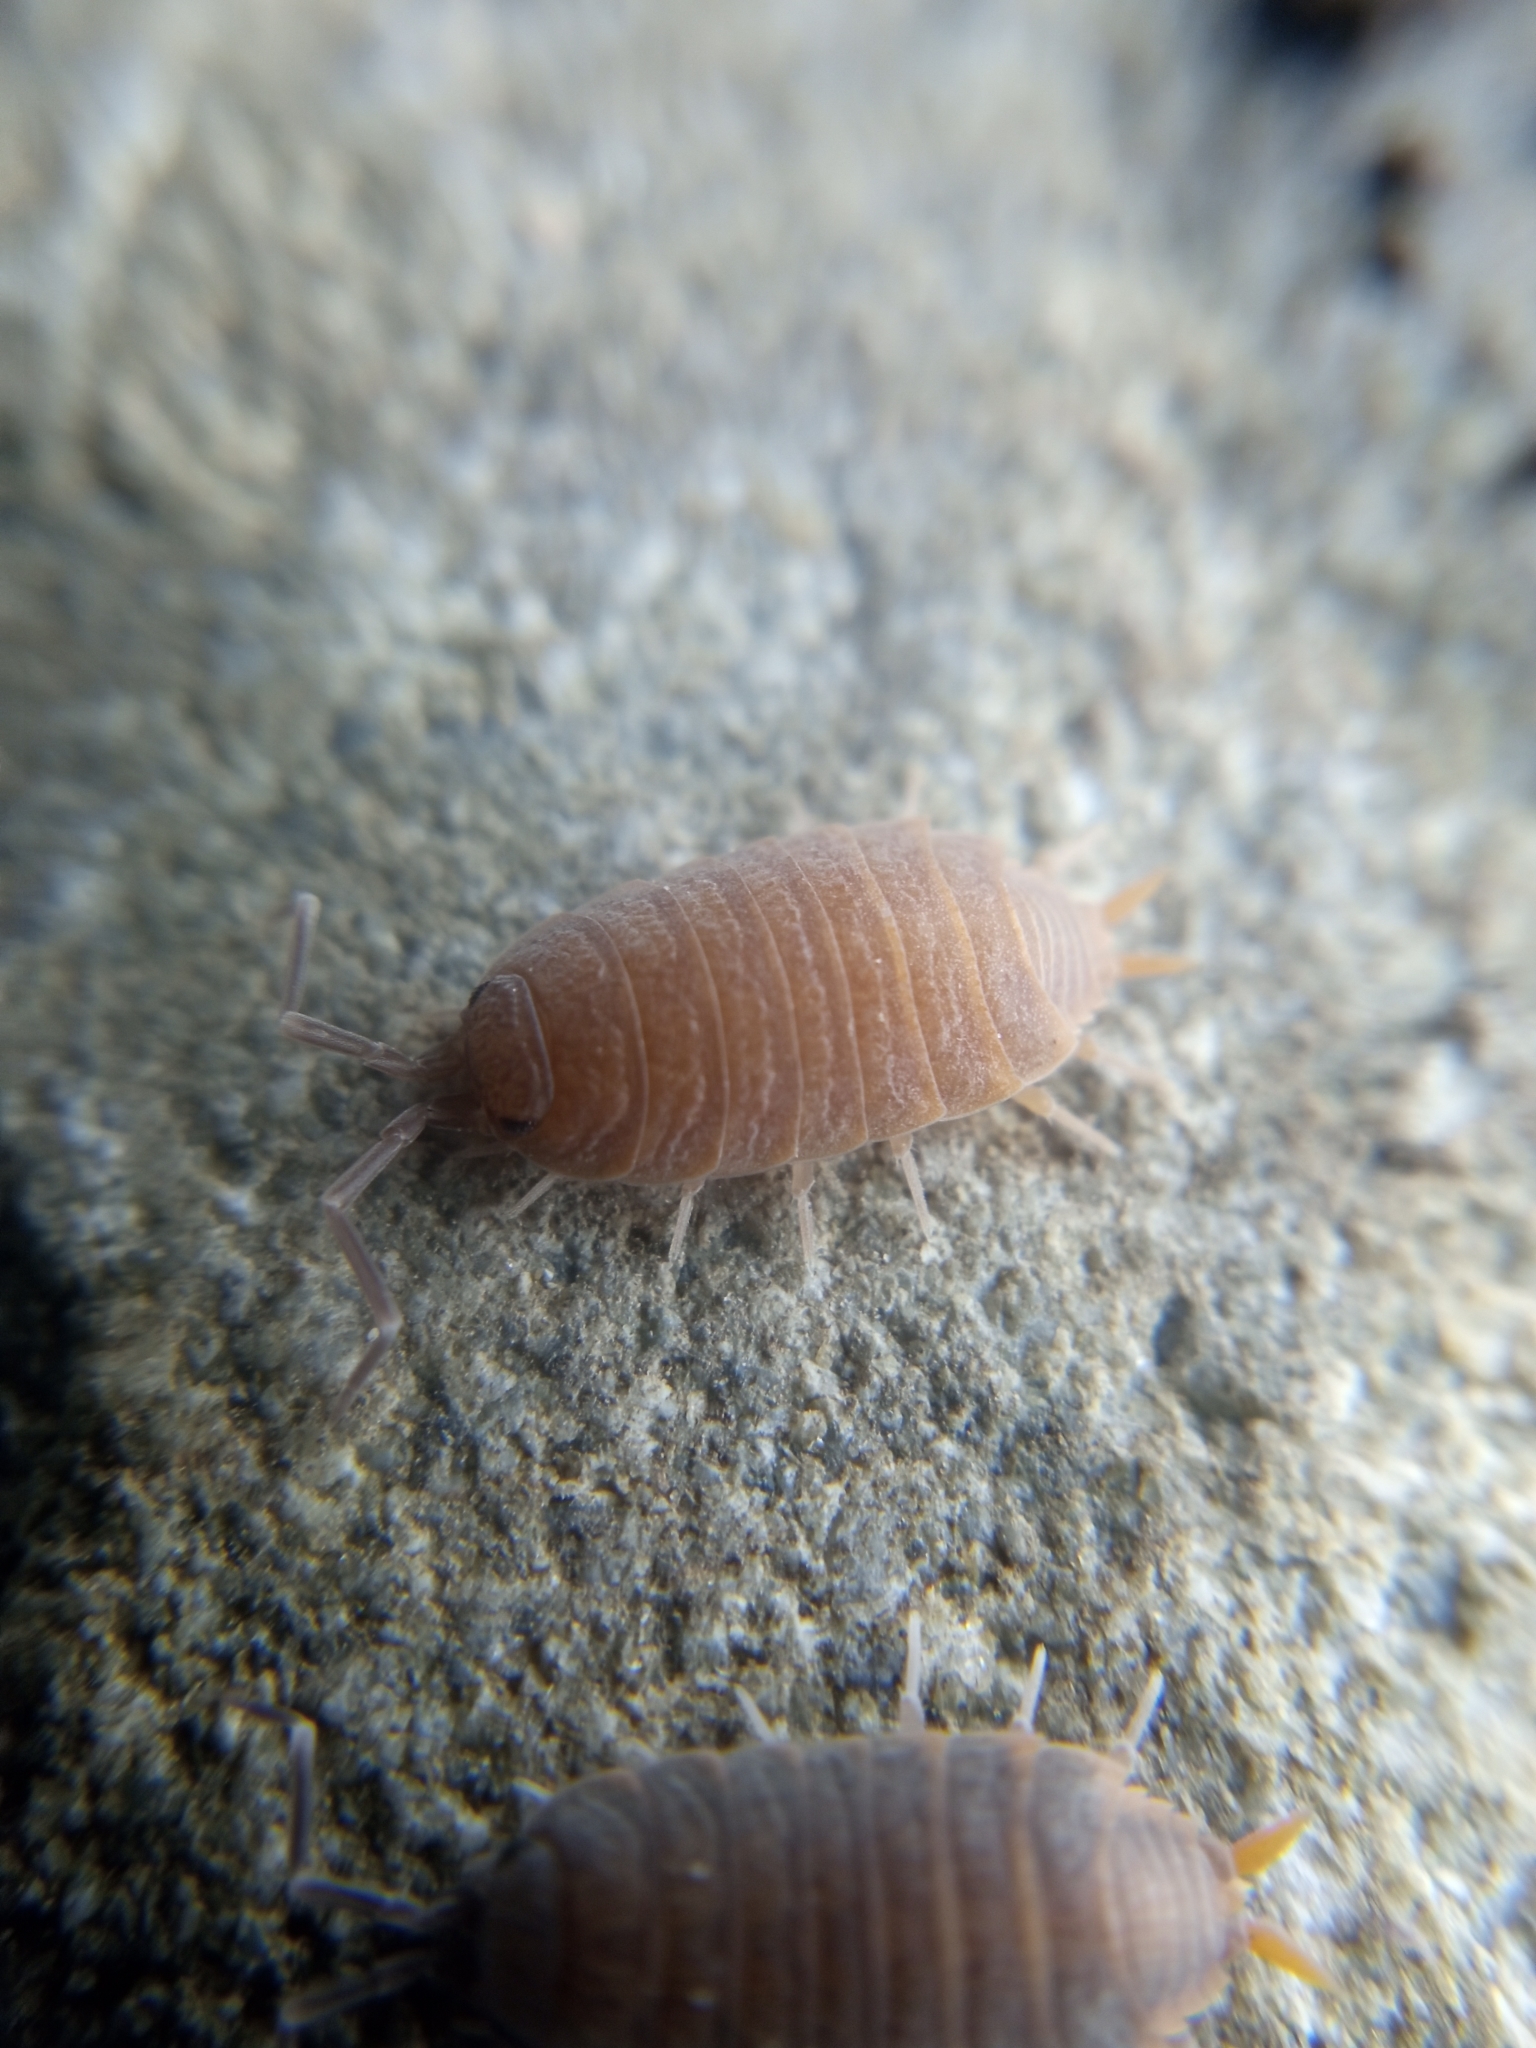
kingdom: Animalia
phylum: Arthropoda
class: Malacostraca
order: Isopoda
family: Porcellionidae
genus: Porcellionides
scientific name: Porcellionides pruinosus
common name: Plum woodlouse
